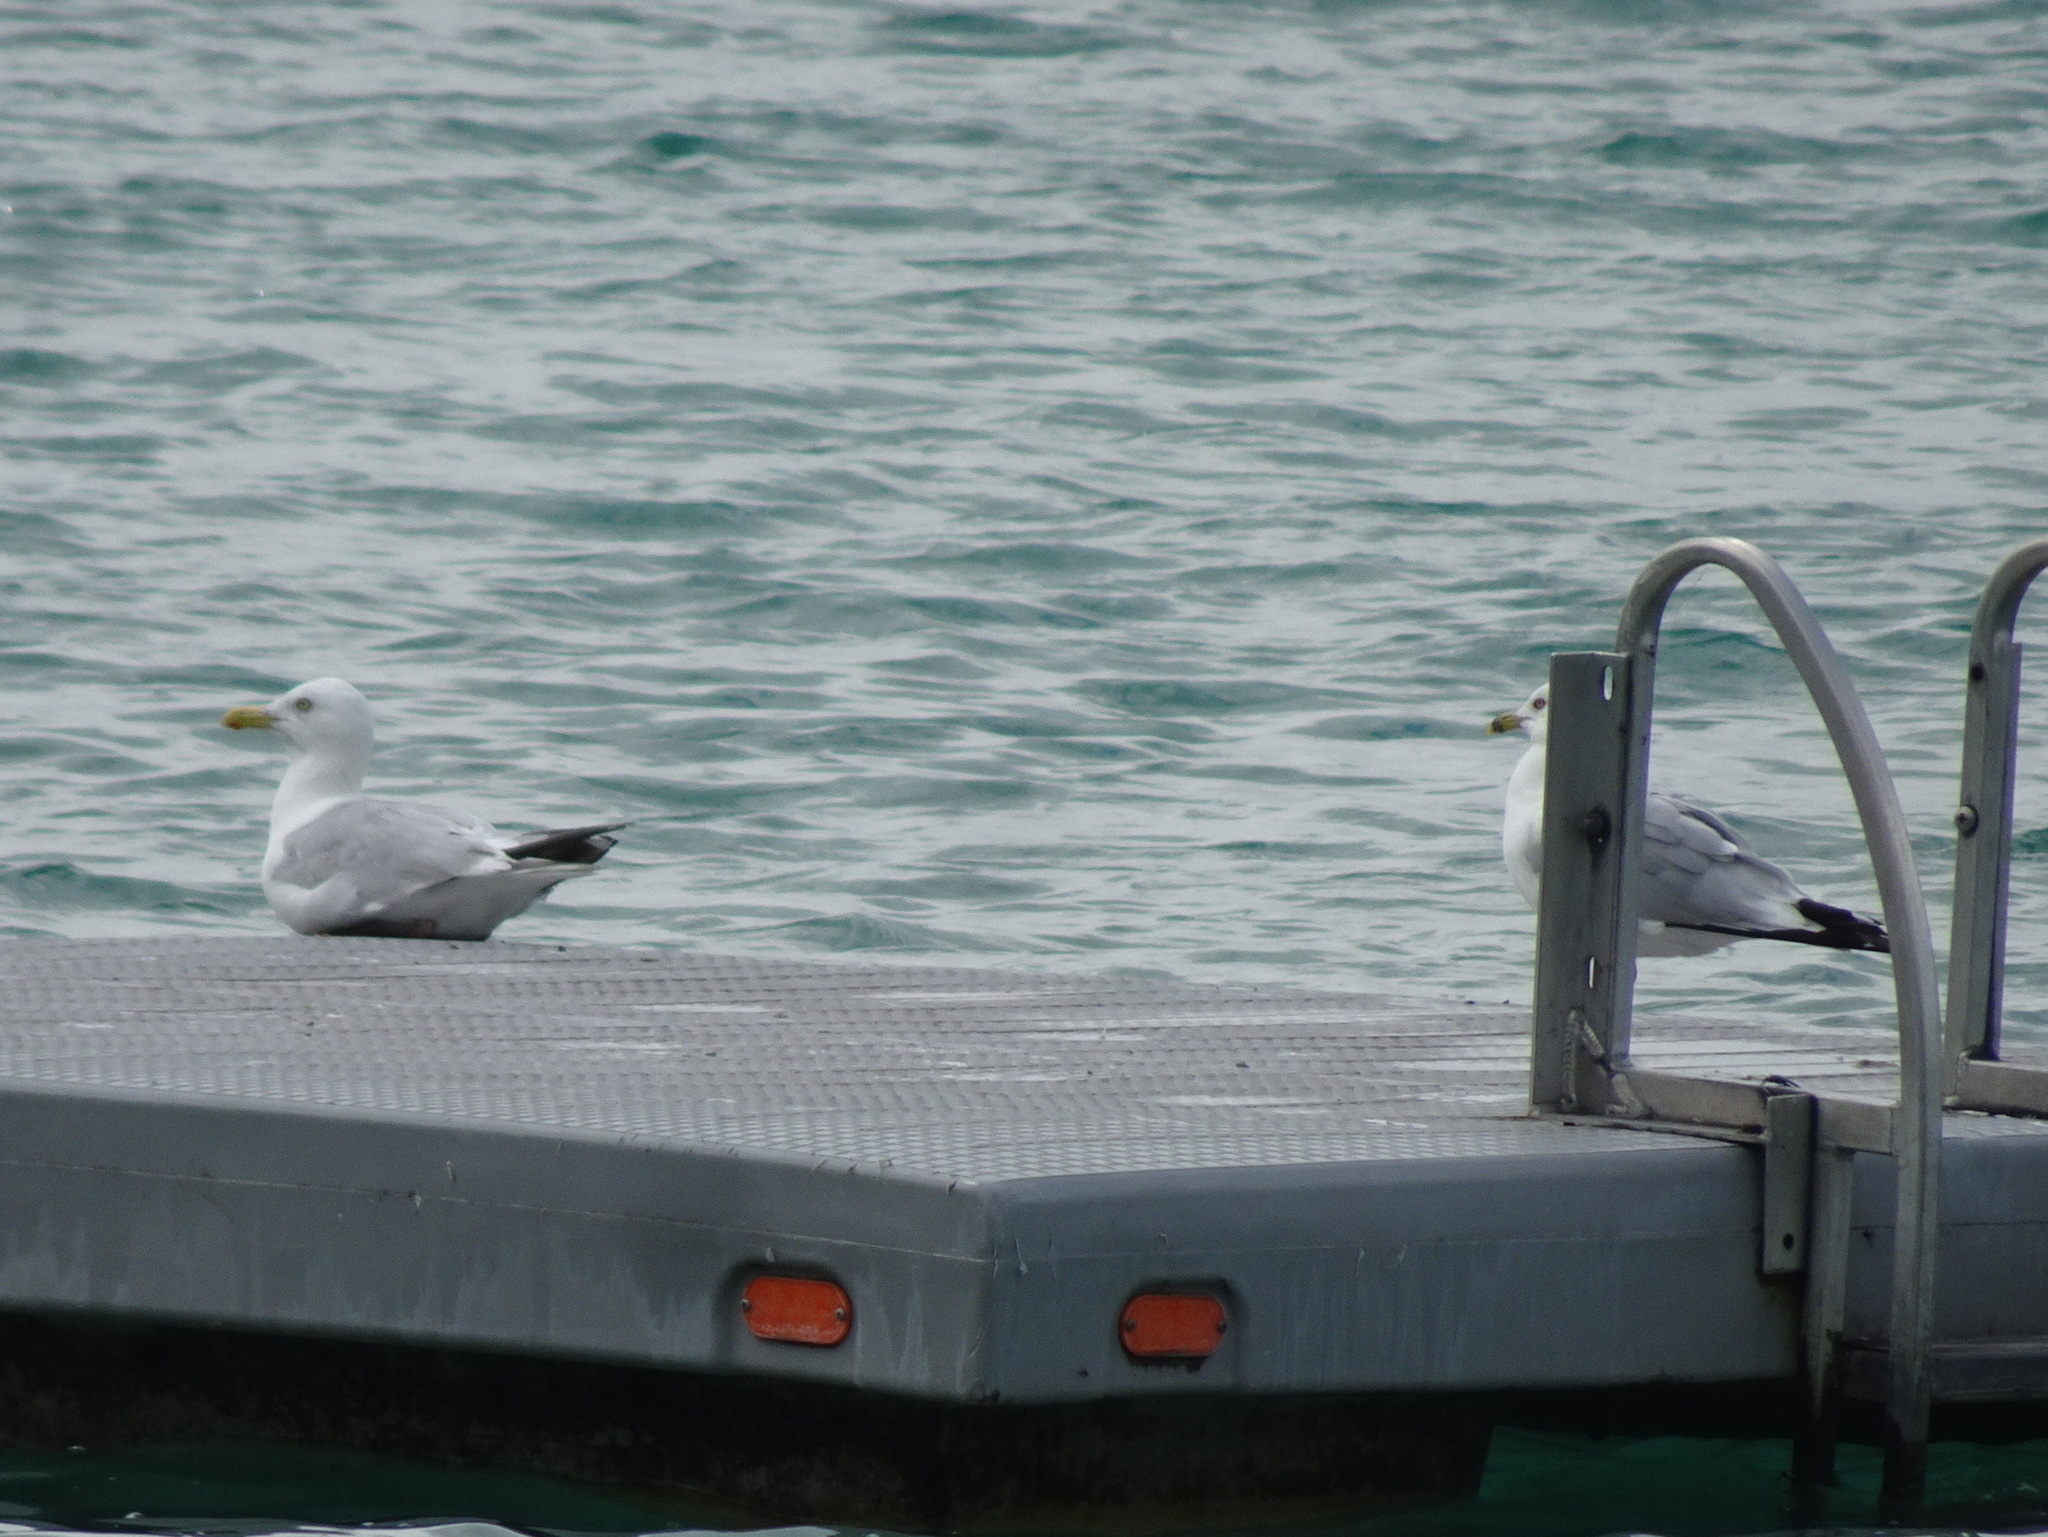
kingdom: Animalia
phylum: Chordata
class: Aves
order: Charadriiformes
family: Laridae
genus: Larus
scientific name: Larus delawarensis
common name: Ring-billed gull
